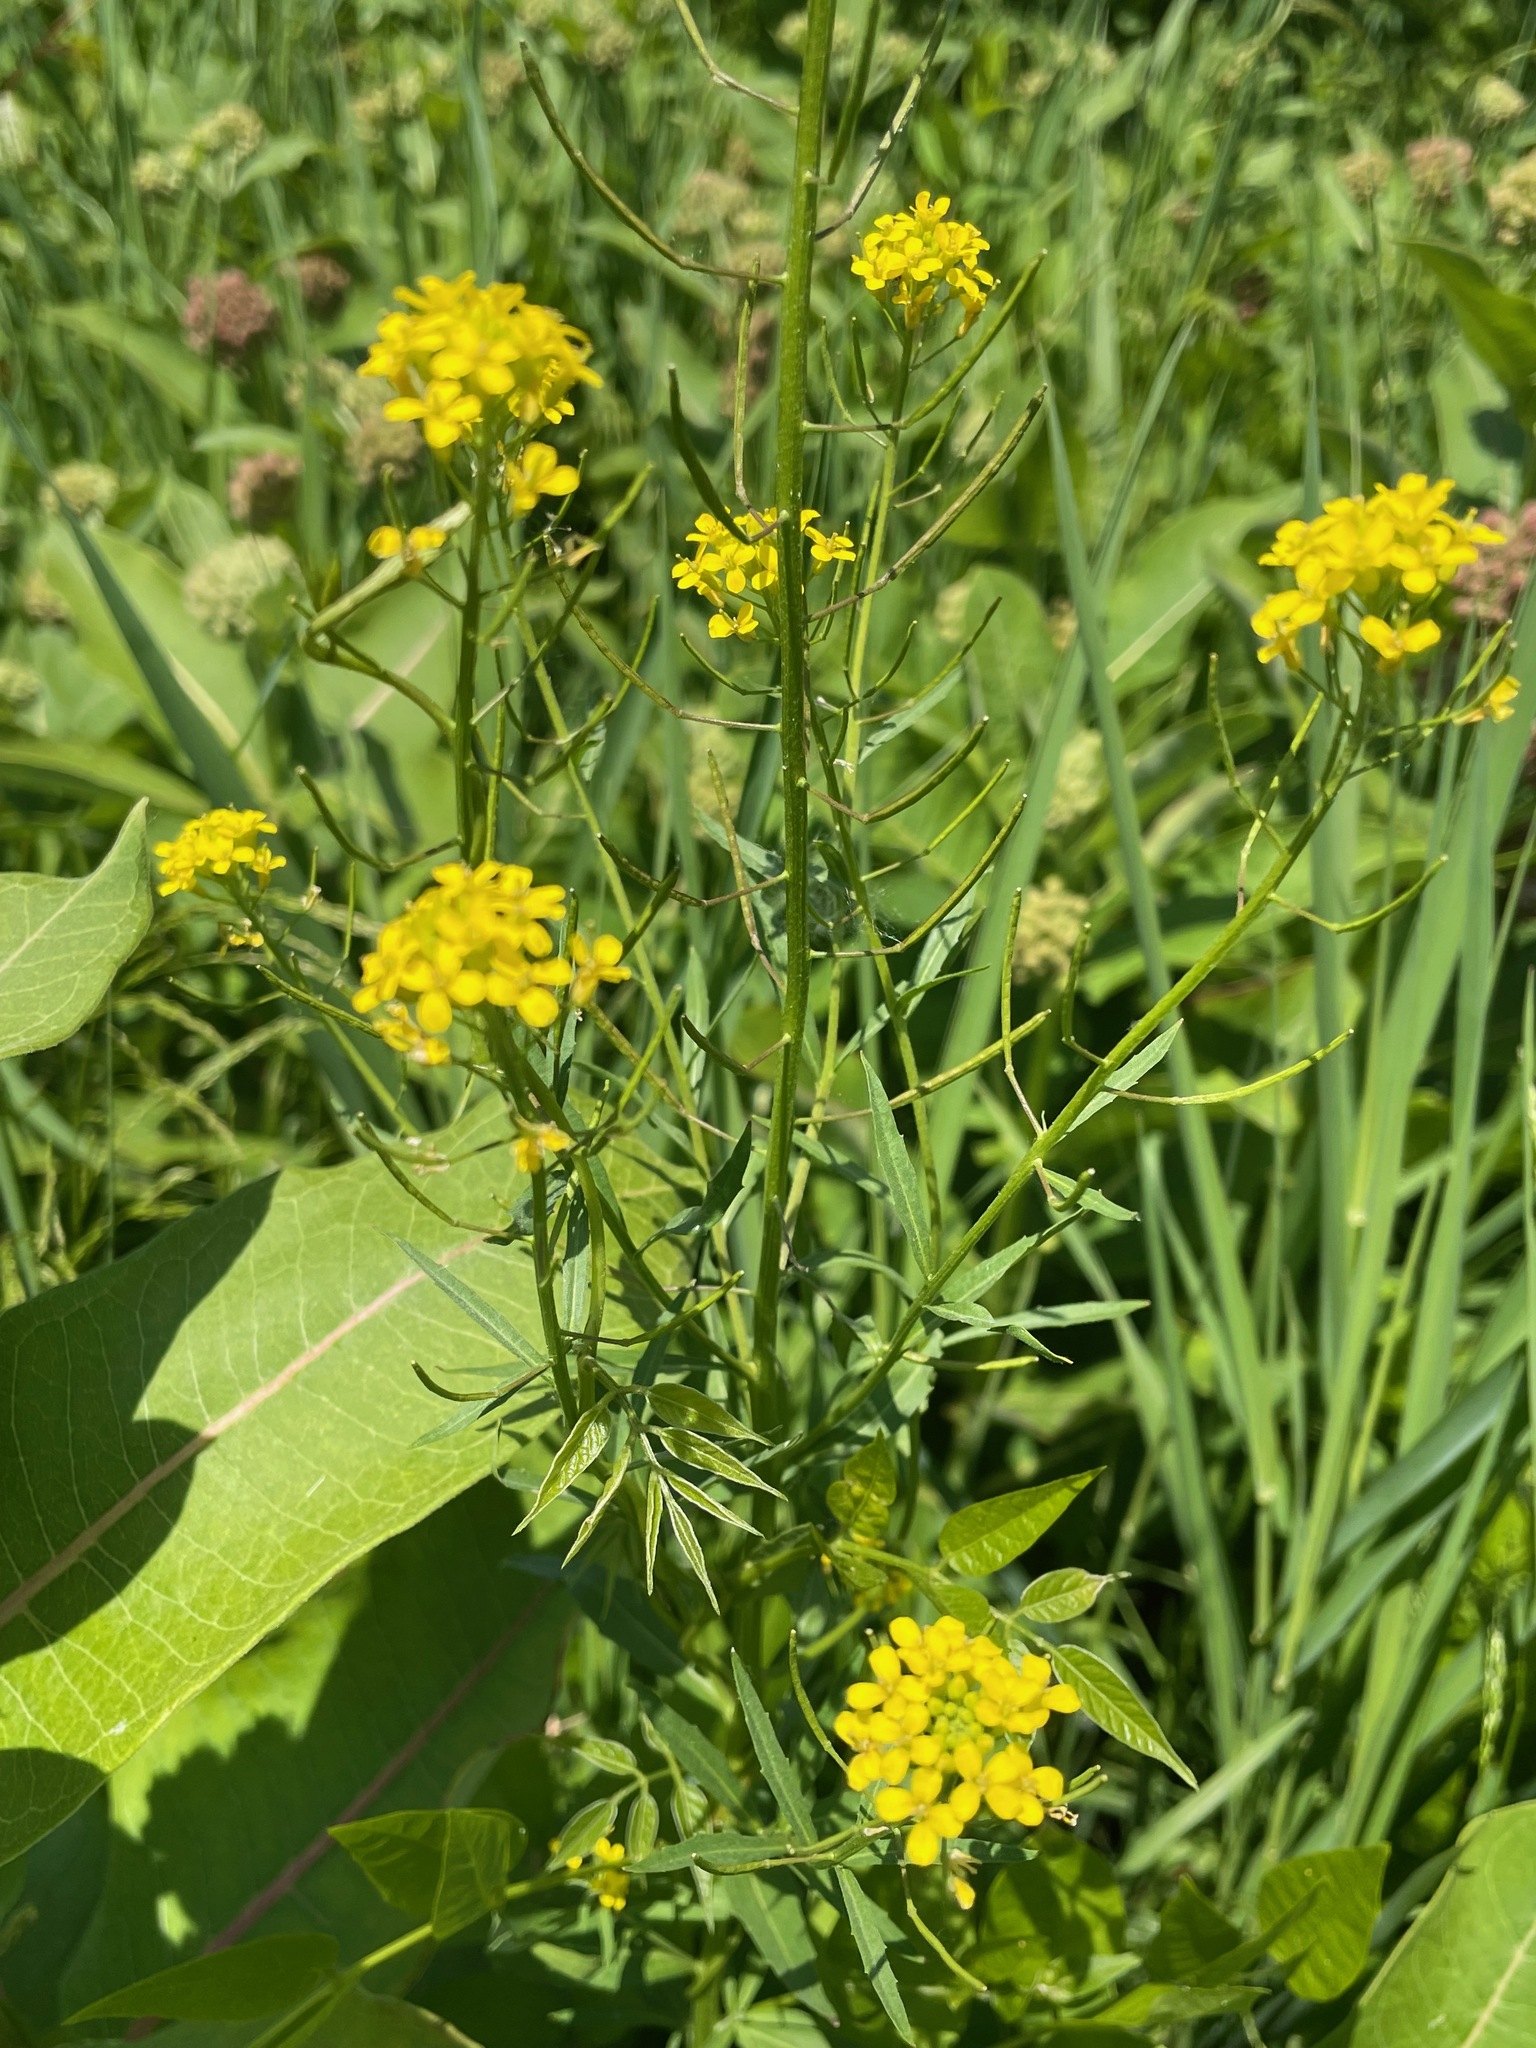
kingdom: Plantae
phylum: Tracheophyta
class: Magnoliopsida
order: Brassicales
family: Brassicaceae
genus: Erysimum
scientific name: Erysimum cheiranthoides
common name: Treacle mustard
